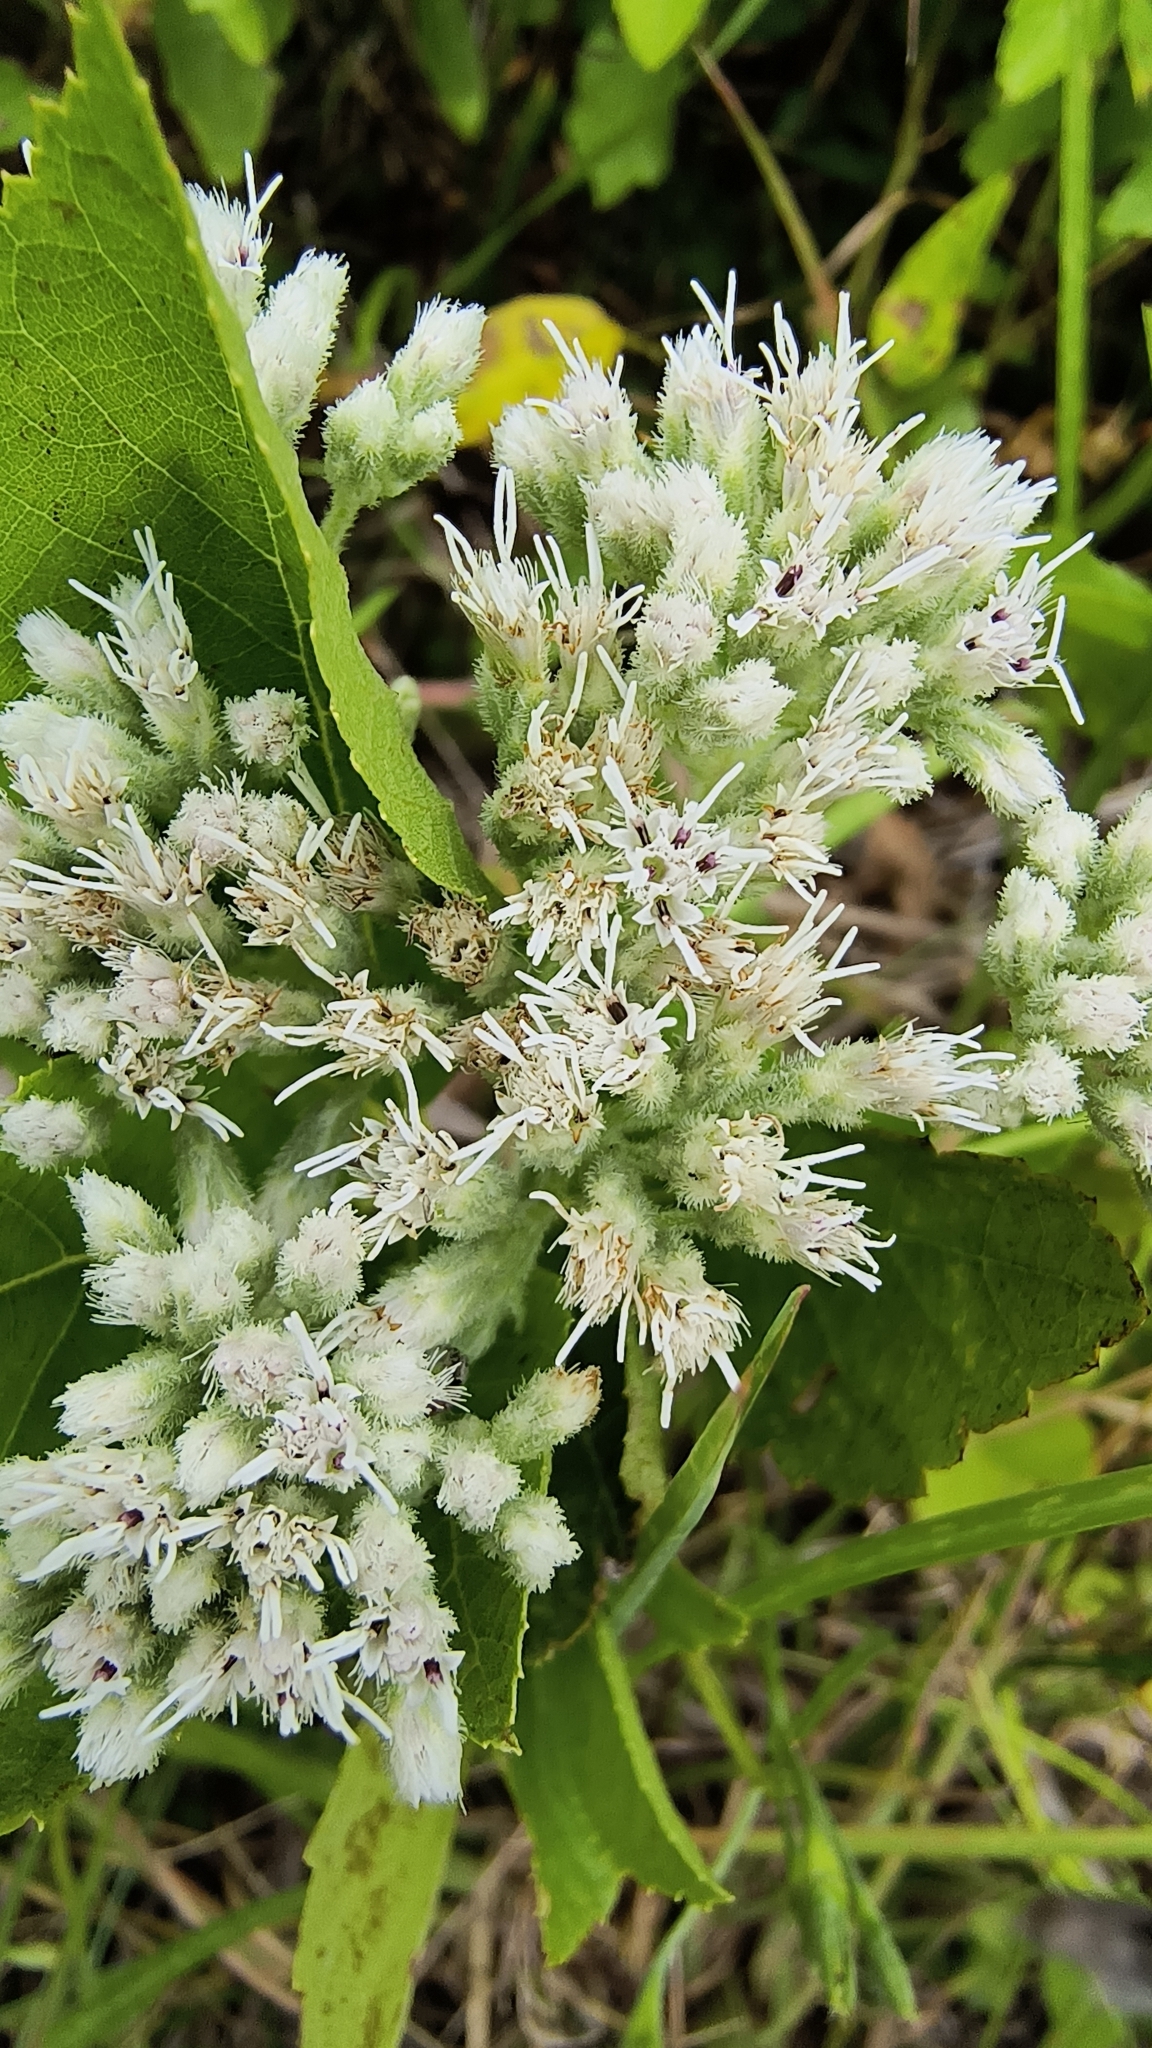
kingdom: Plantae
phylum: Tracheophyta
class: Magnoliopsida
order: Asterales
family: Asteraceae
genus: Eupatorium
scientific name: Eupatorium pilosum
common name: Rough boneset
